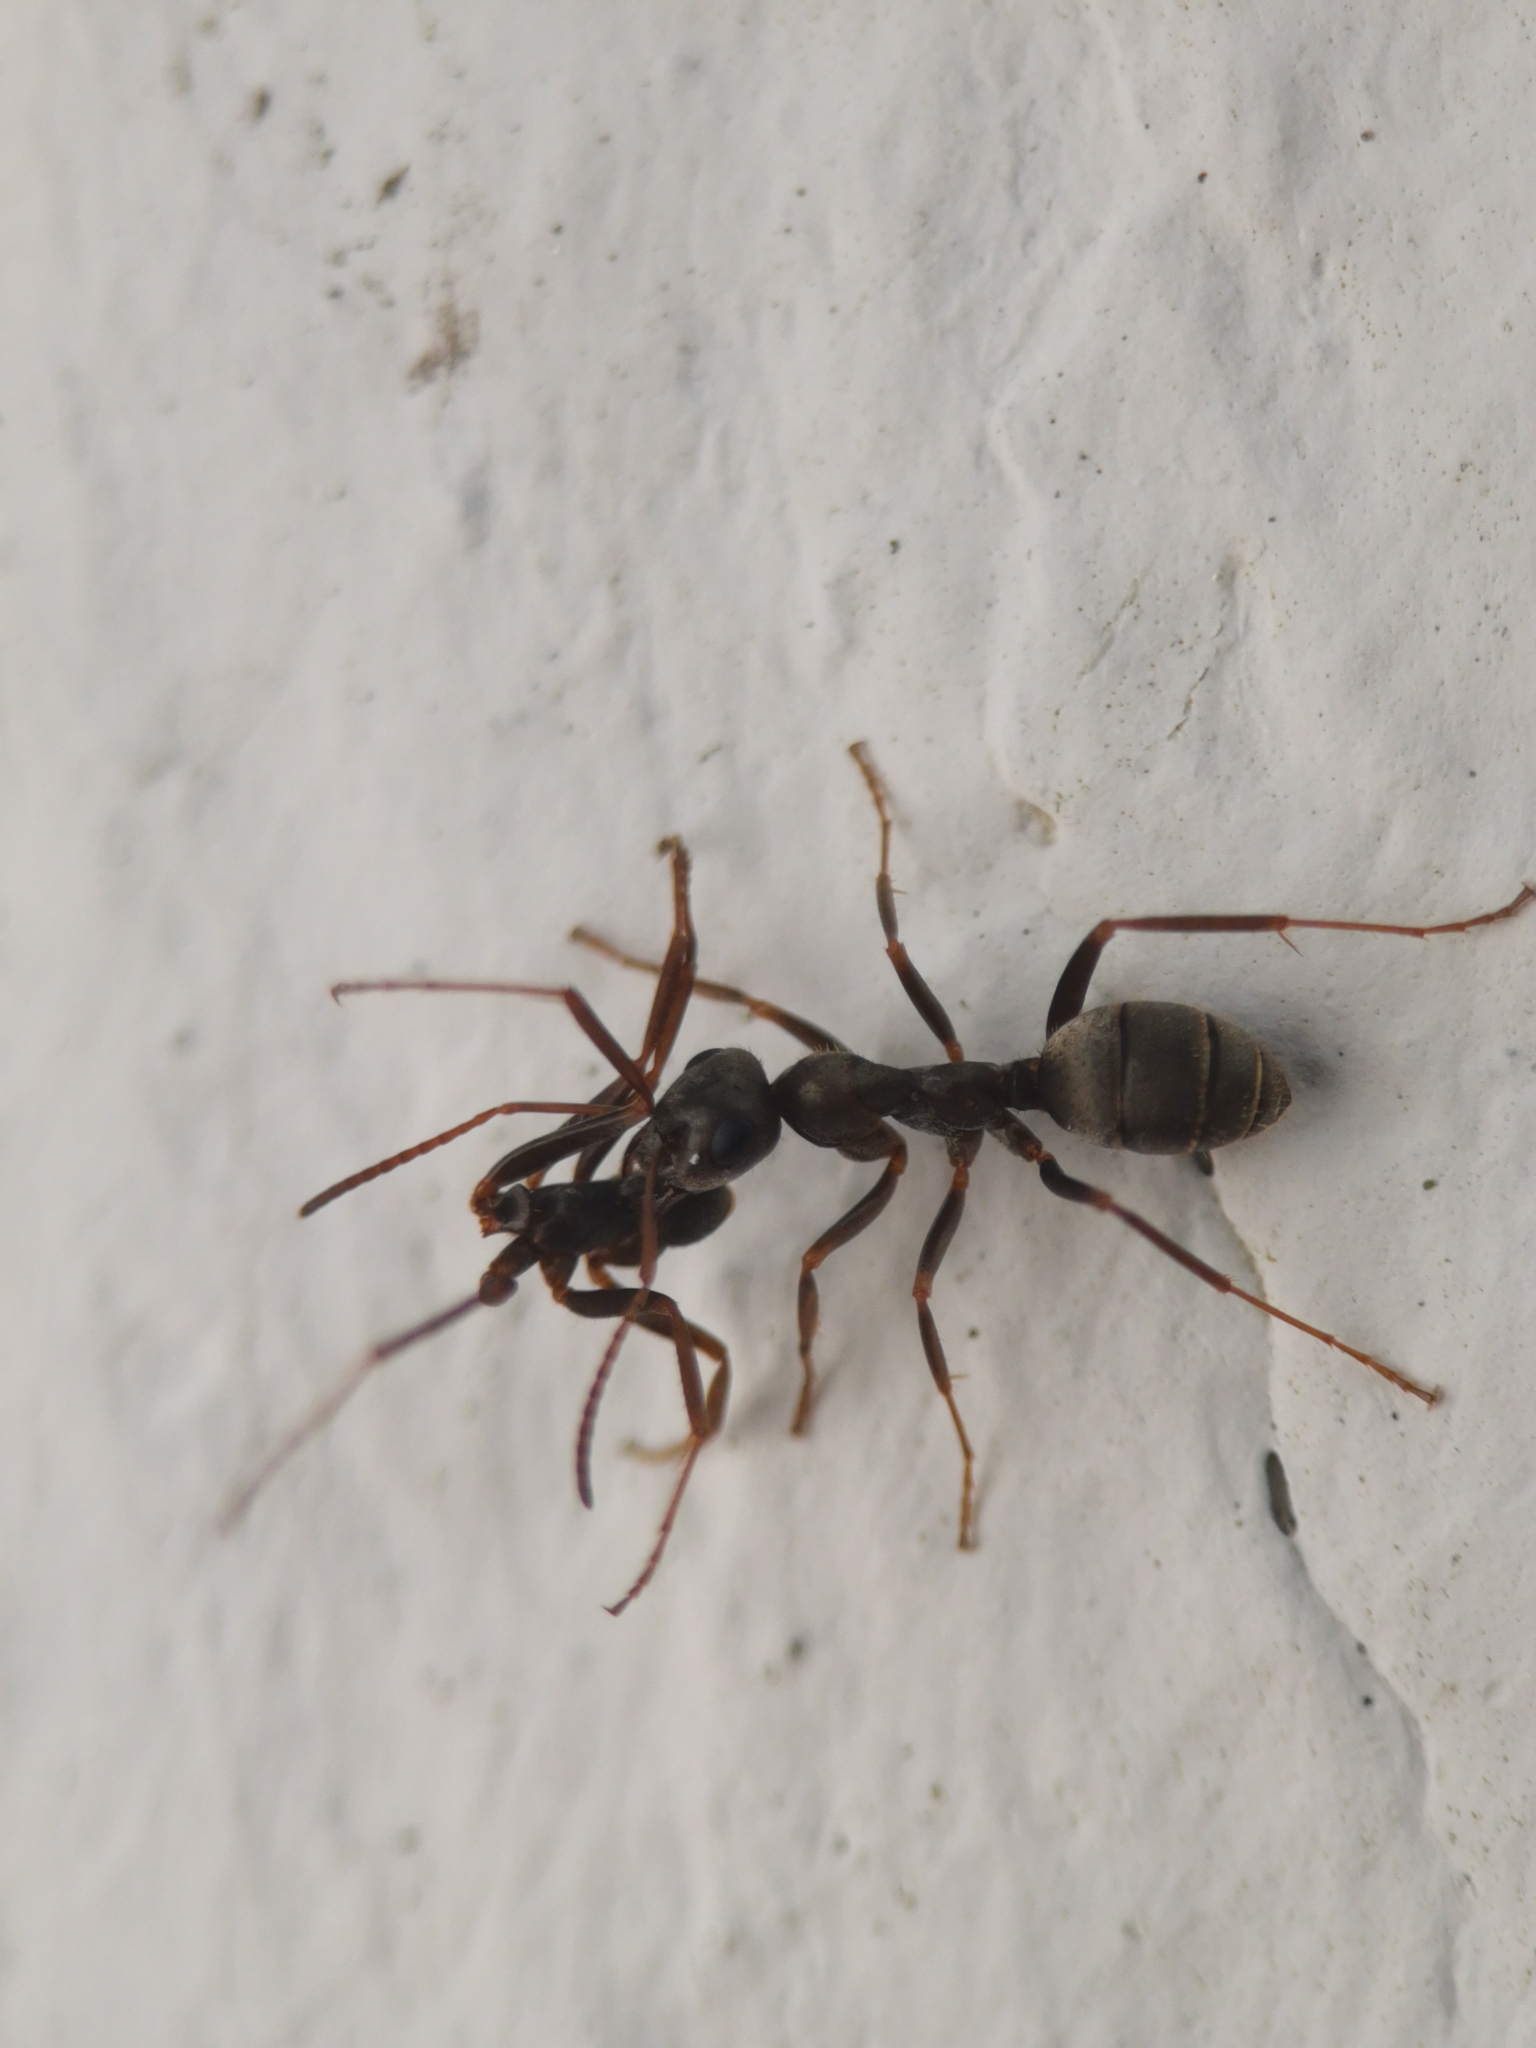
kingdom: Animalia
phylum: Arthropoda
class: Insecta
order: Hymenoptera
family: Formicidae
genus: Formica
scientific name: Formica cinerea
